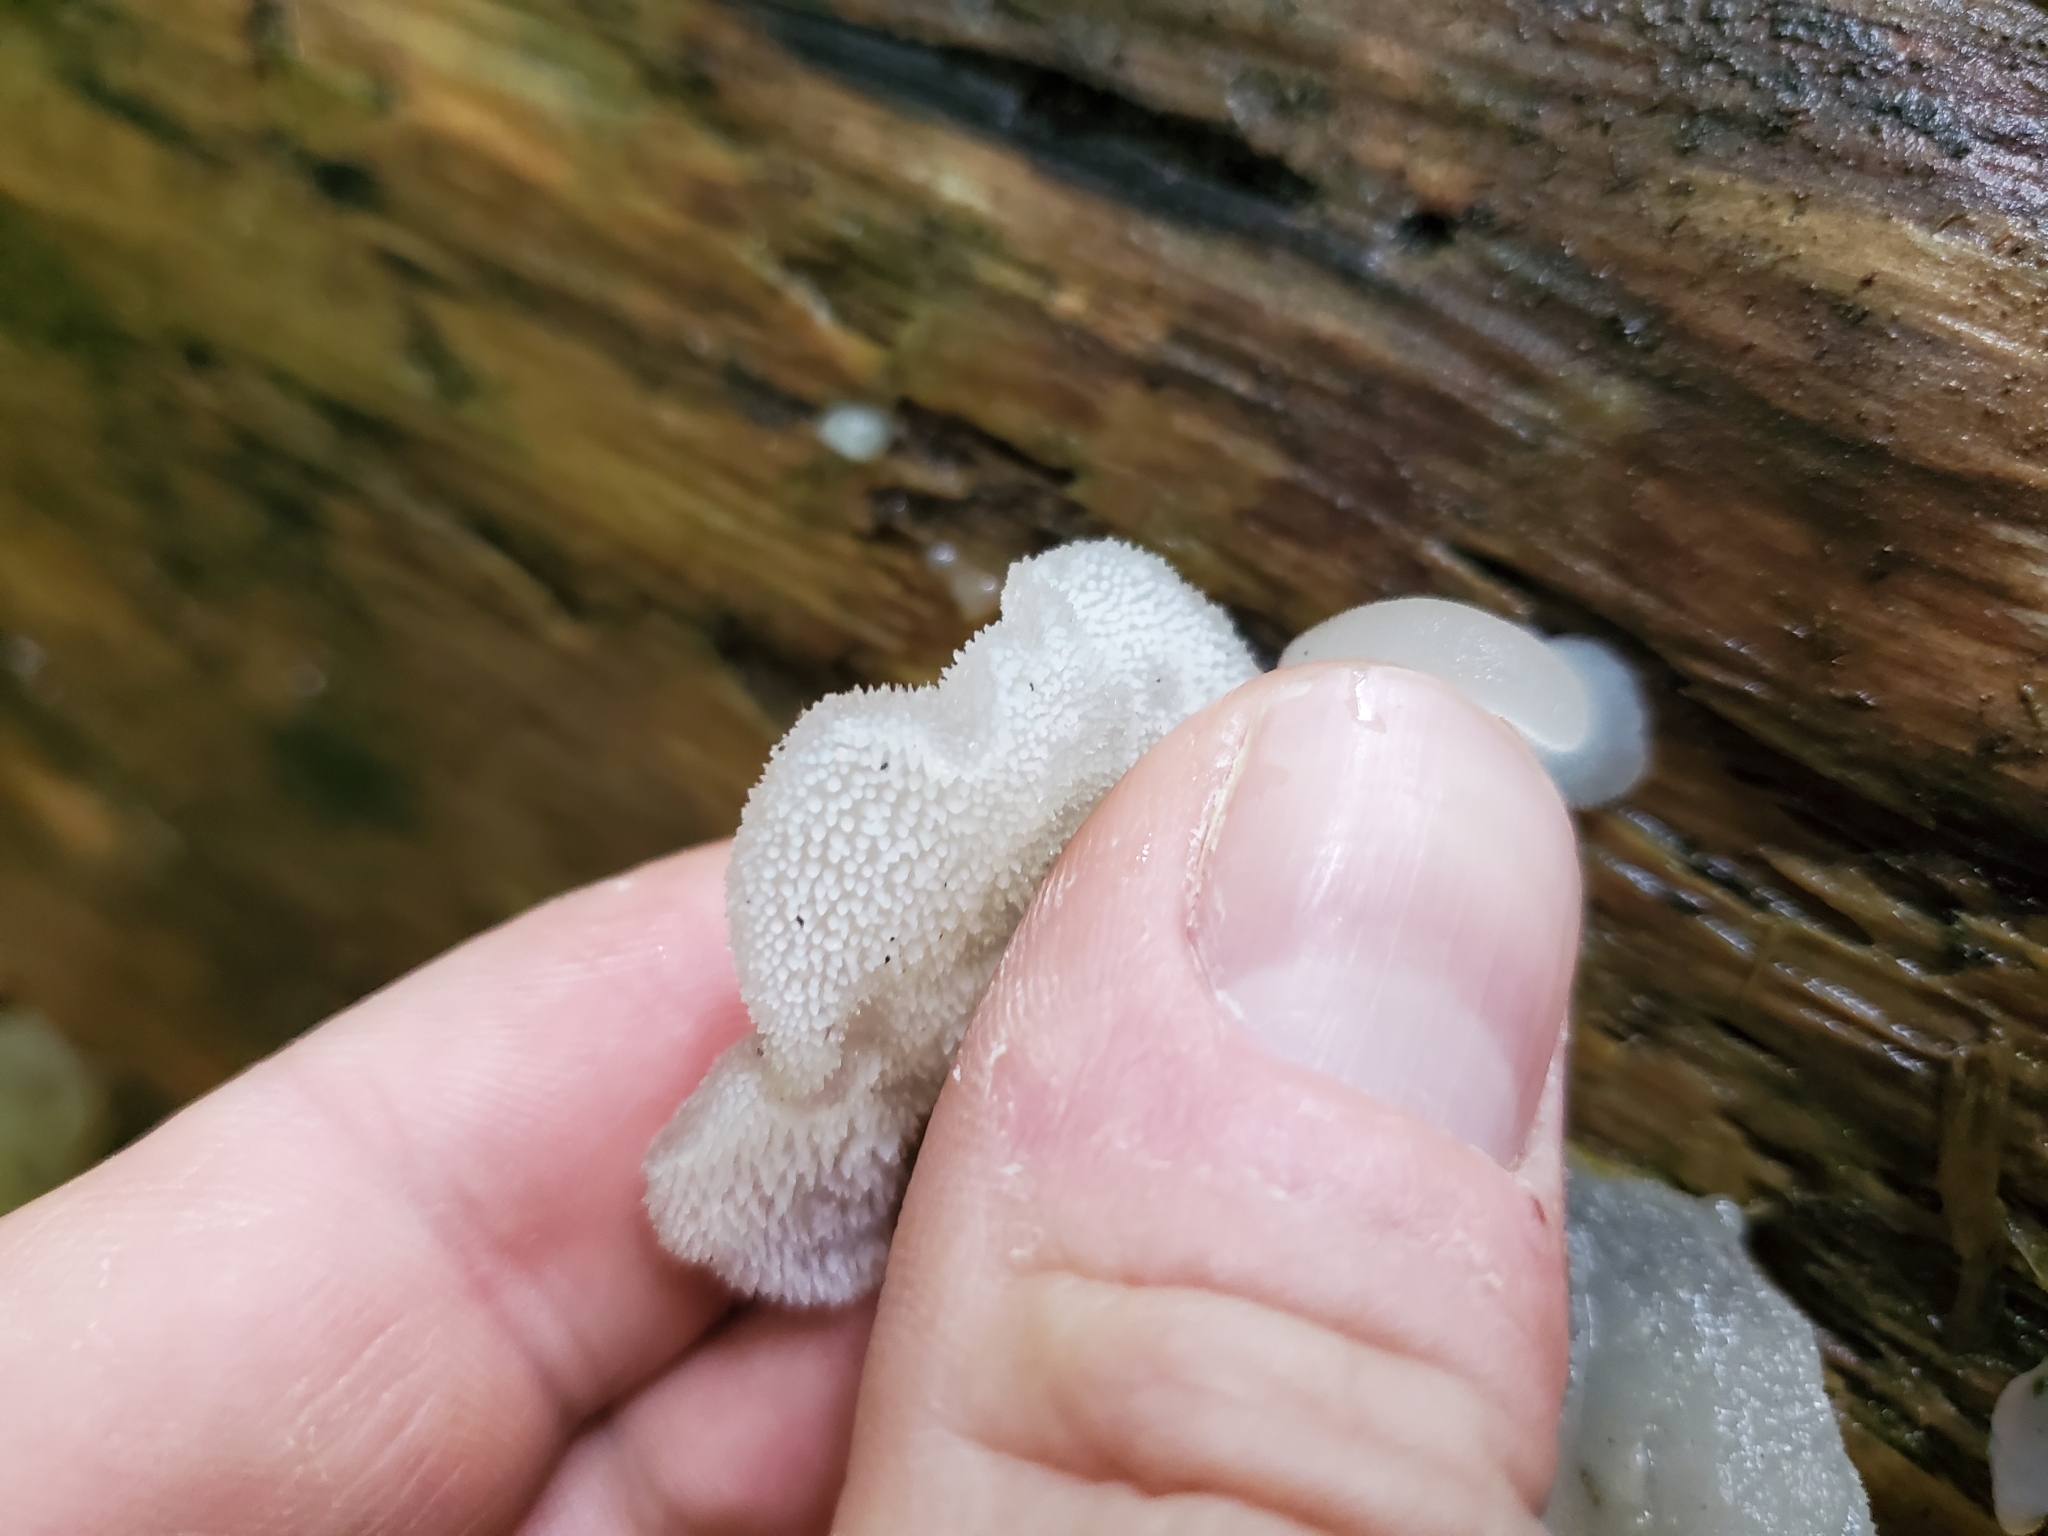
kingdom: Fungi
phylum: Basidiomycota
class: Agaricomycetes
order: Auriculariales
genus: Pseudohydnum
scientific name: Pseudohydnum gelatinosum
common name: Jelly tongue
